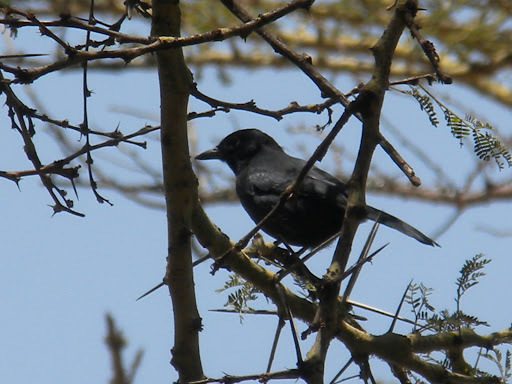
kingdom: Animalia
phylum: Chordata
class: Aves
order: Passeriformes
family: Malaconotidae
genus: Laniarius
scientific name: Laniarius funebris
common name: Slate-colored boubou
